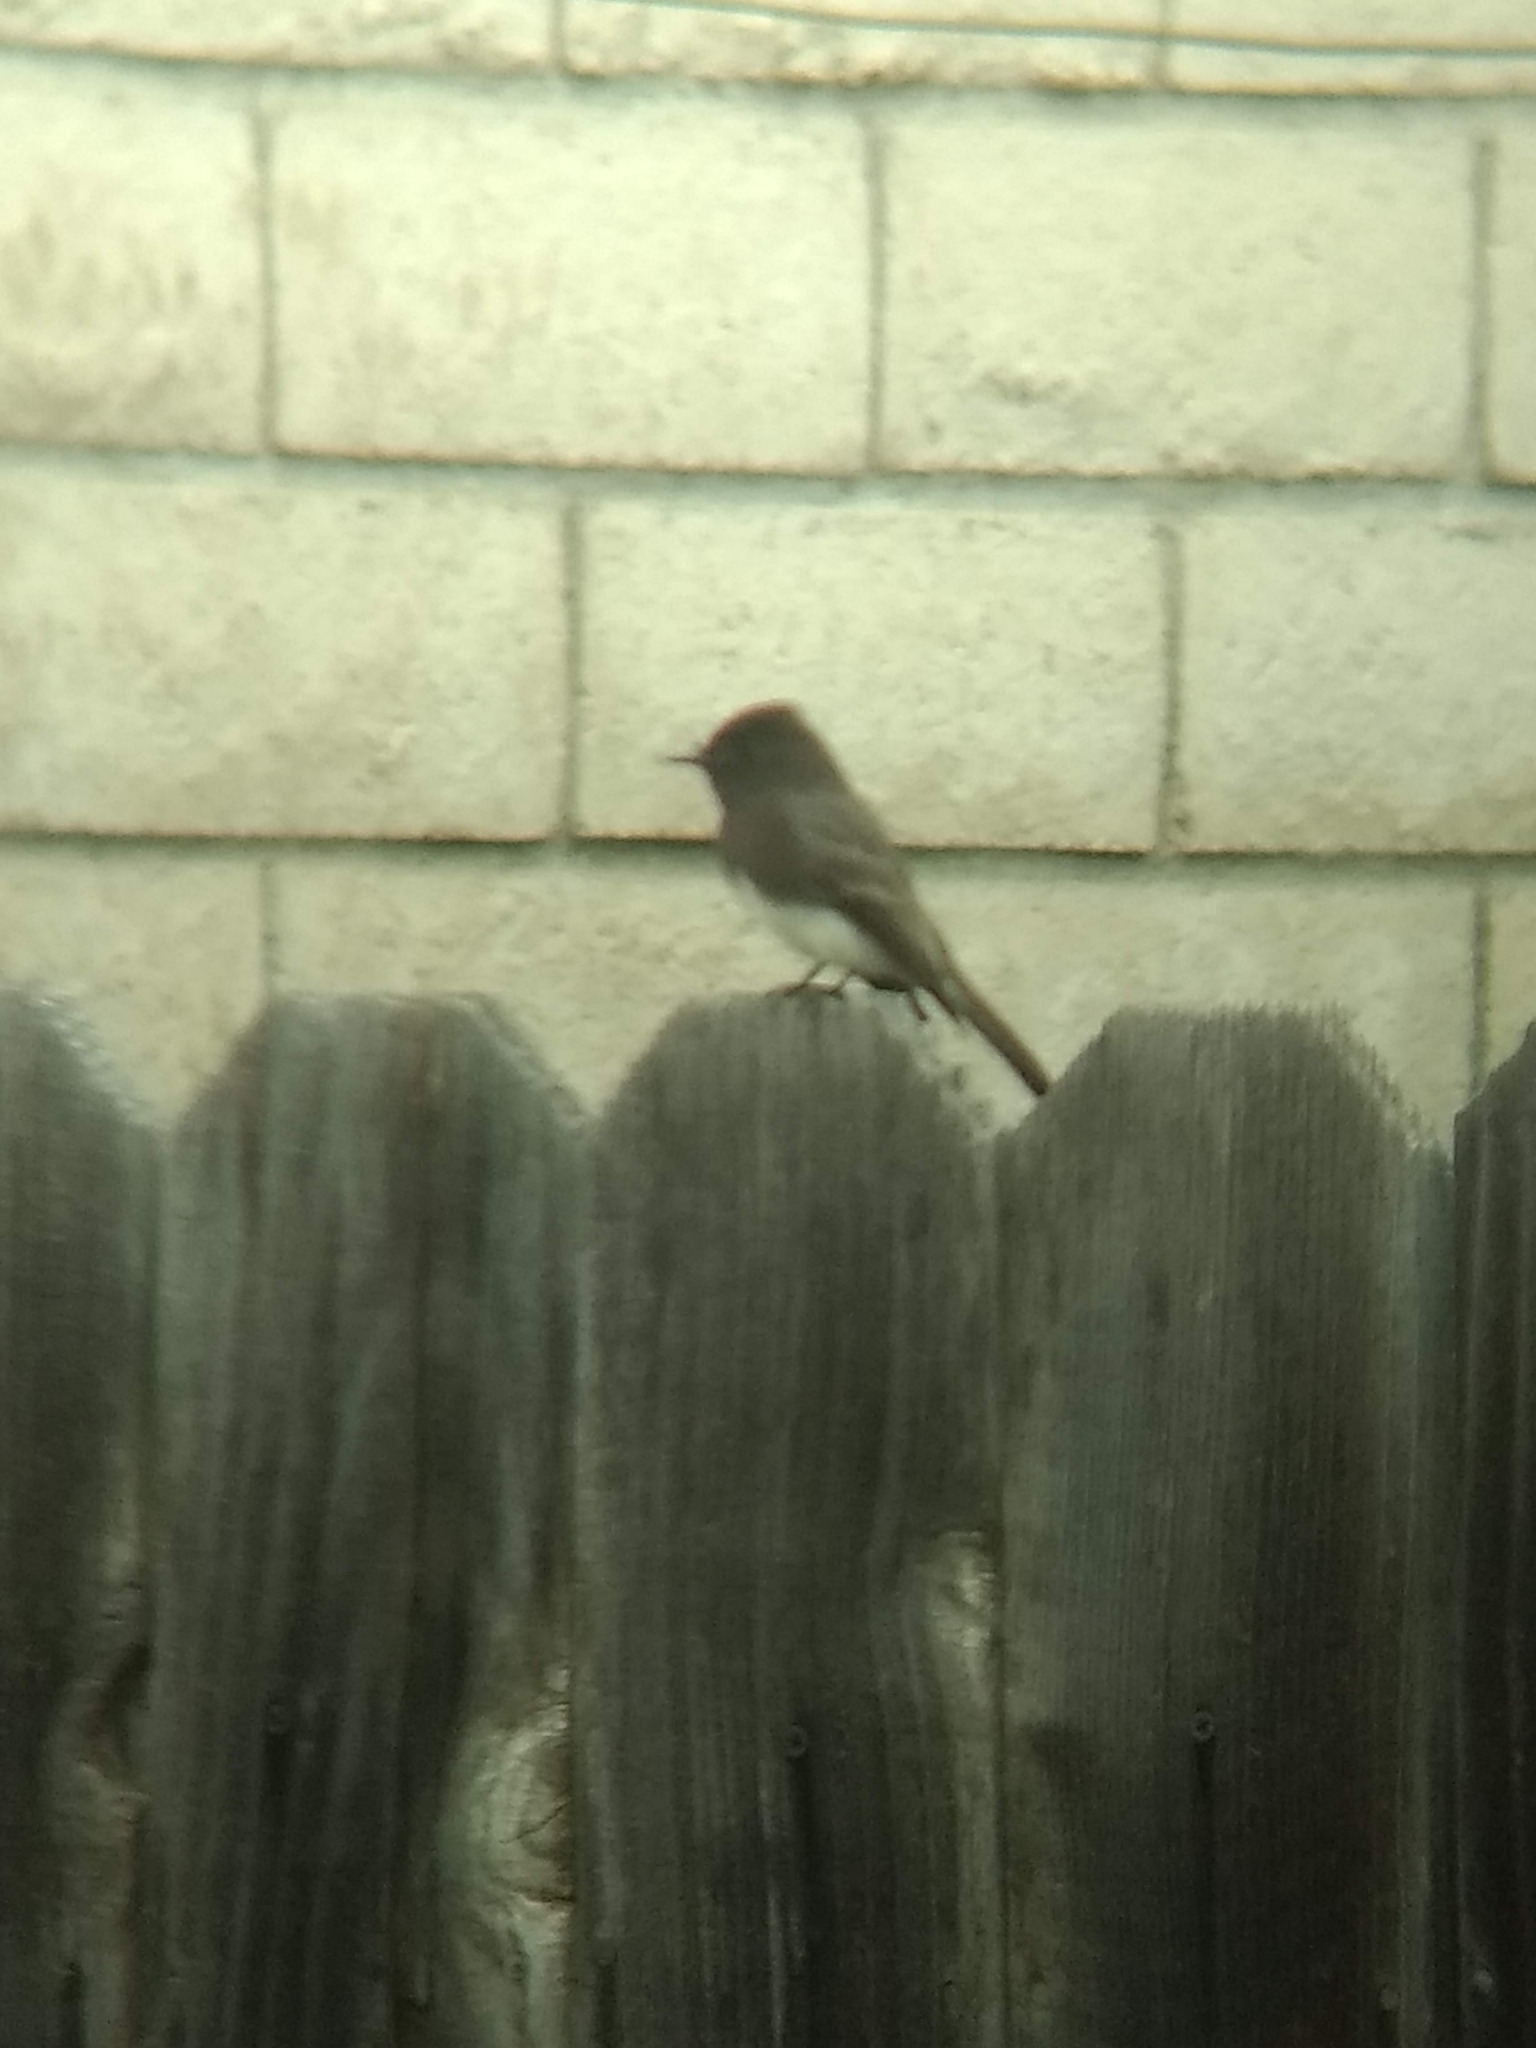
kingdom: Animalia
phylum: Chordata
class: Aves
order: Passeriformes
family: Tyrannidae
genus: Sayornis
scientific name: Sayornis nigricans
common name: Black phoebe
